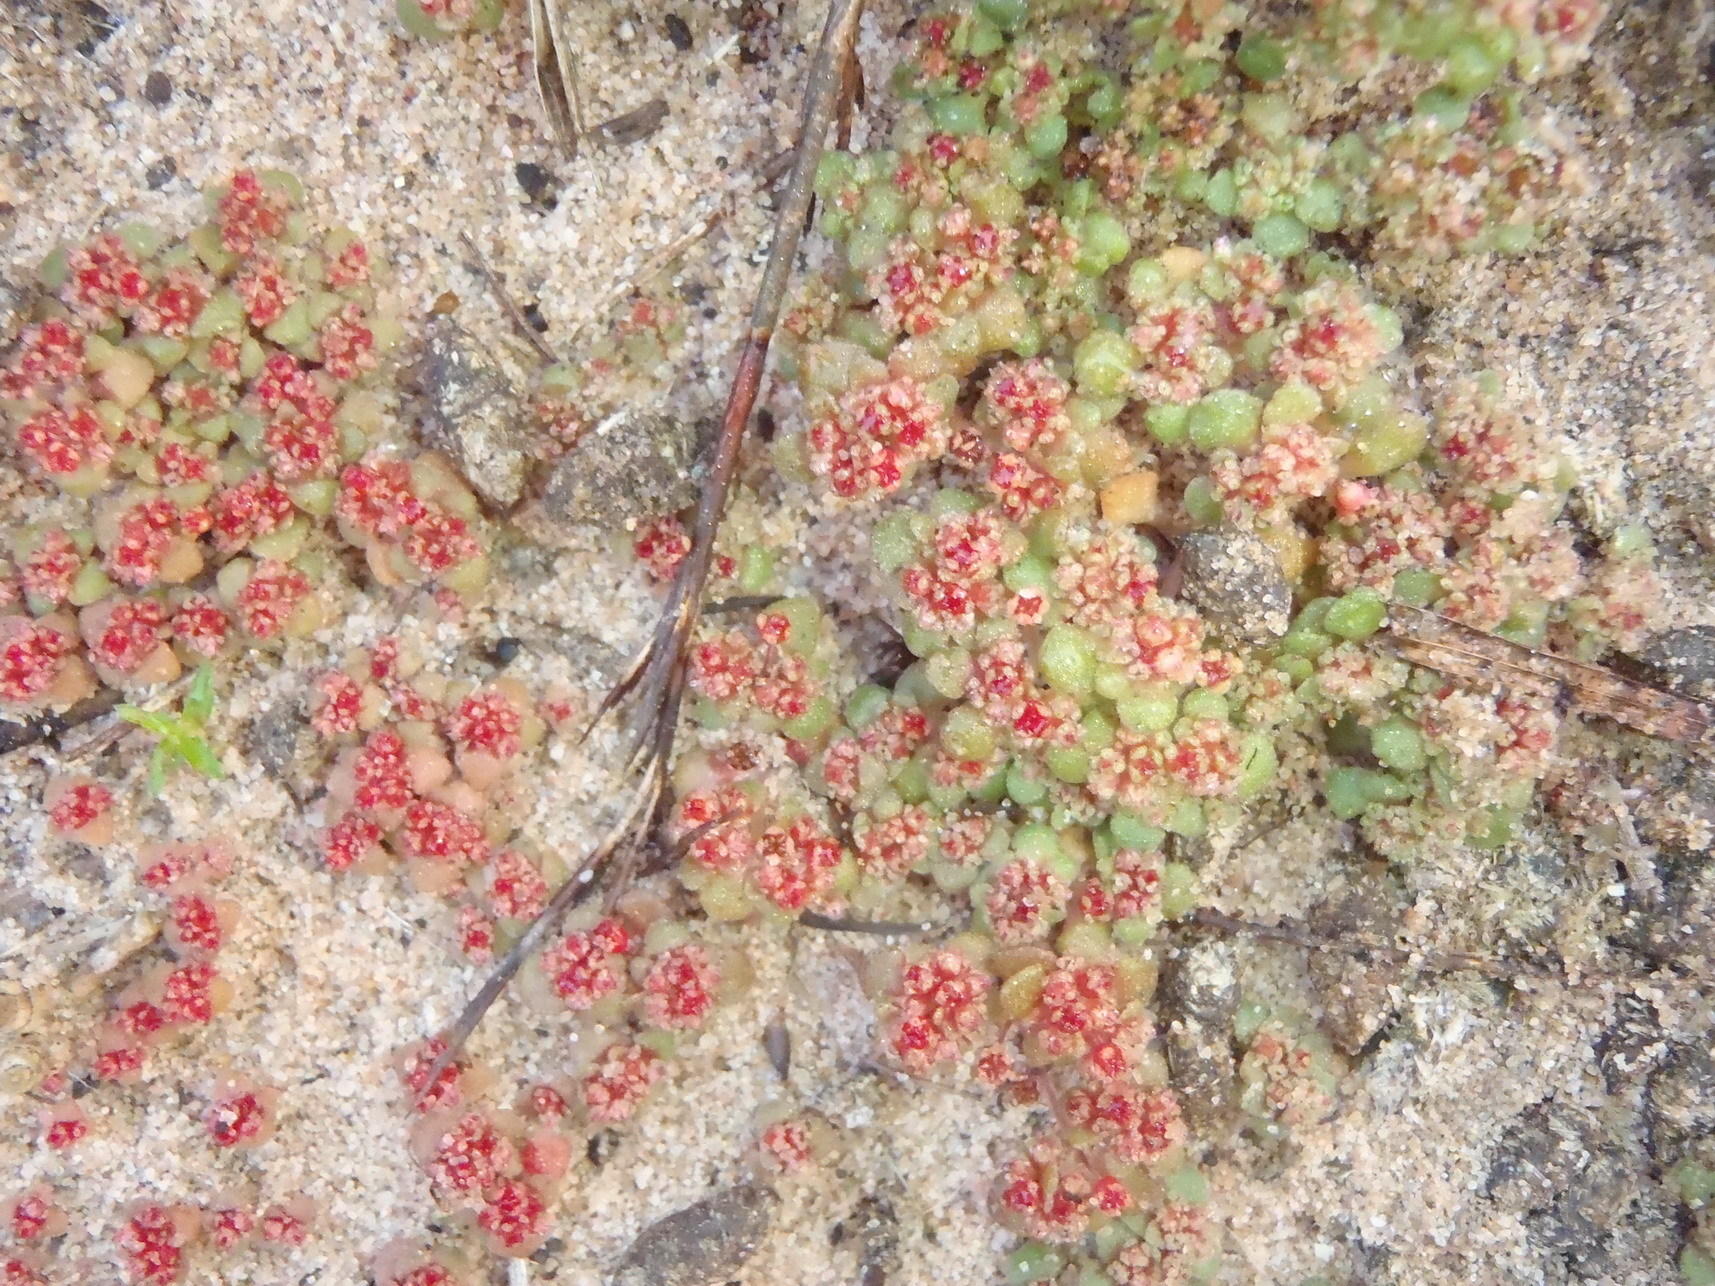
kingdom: Plantae
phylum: Tracheophyta
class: Magnoliopsida
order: Saxifragales
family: Crassulaceae
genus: Crassula
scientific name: Crassula umbellata
